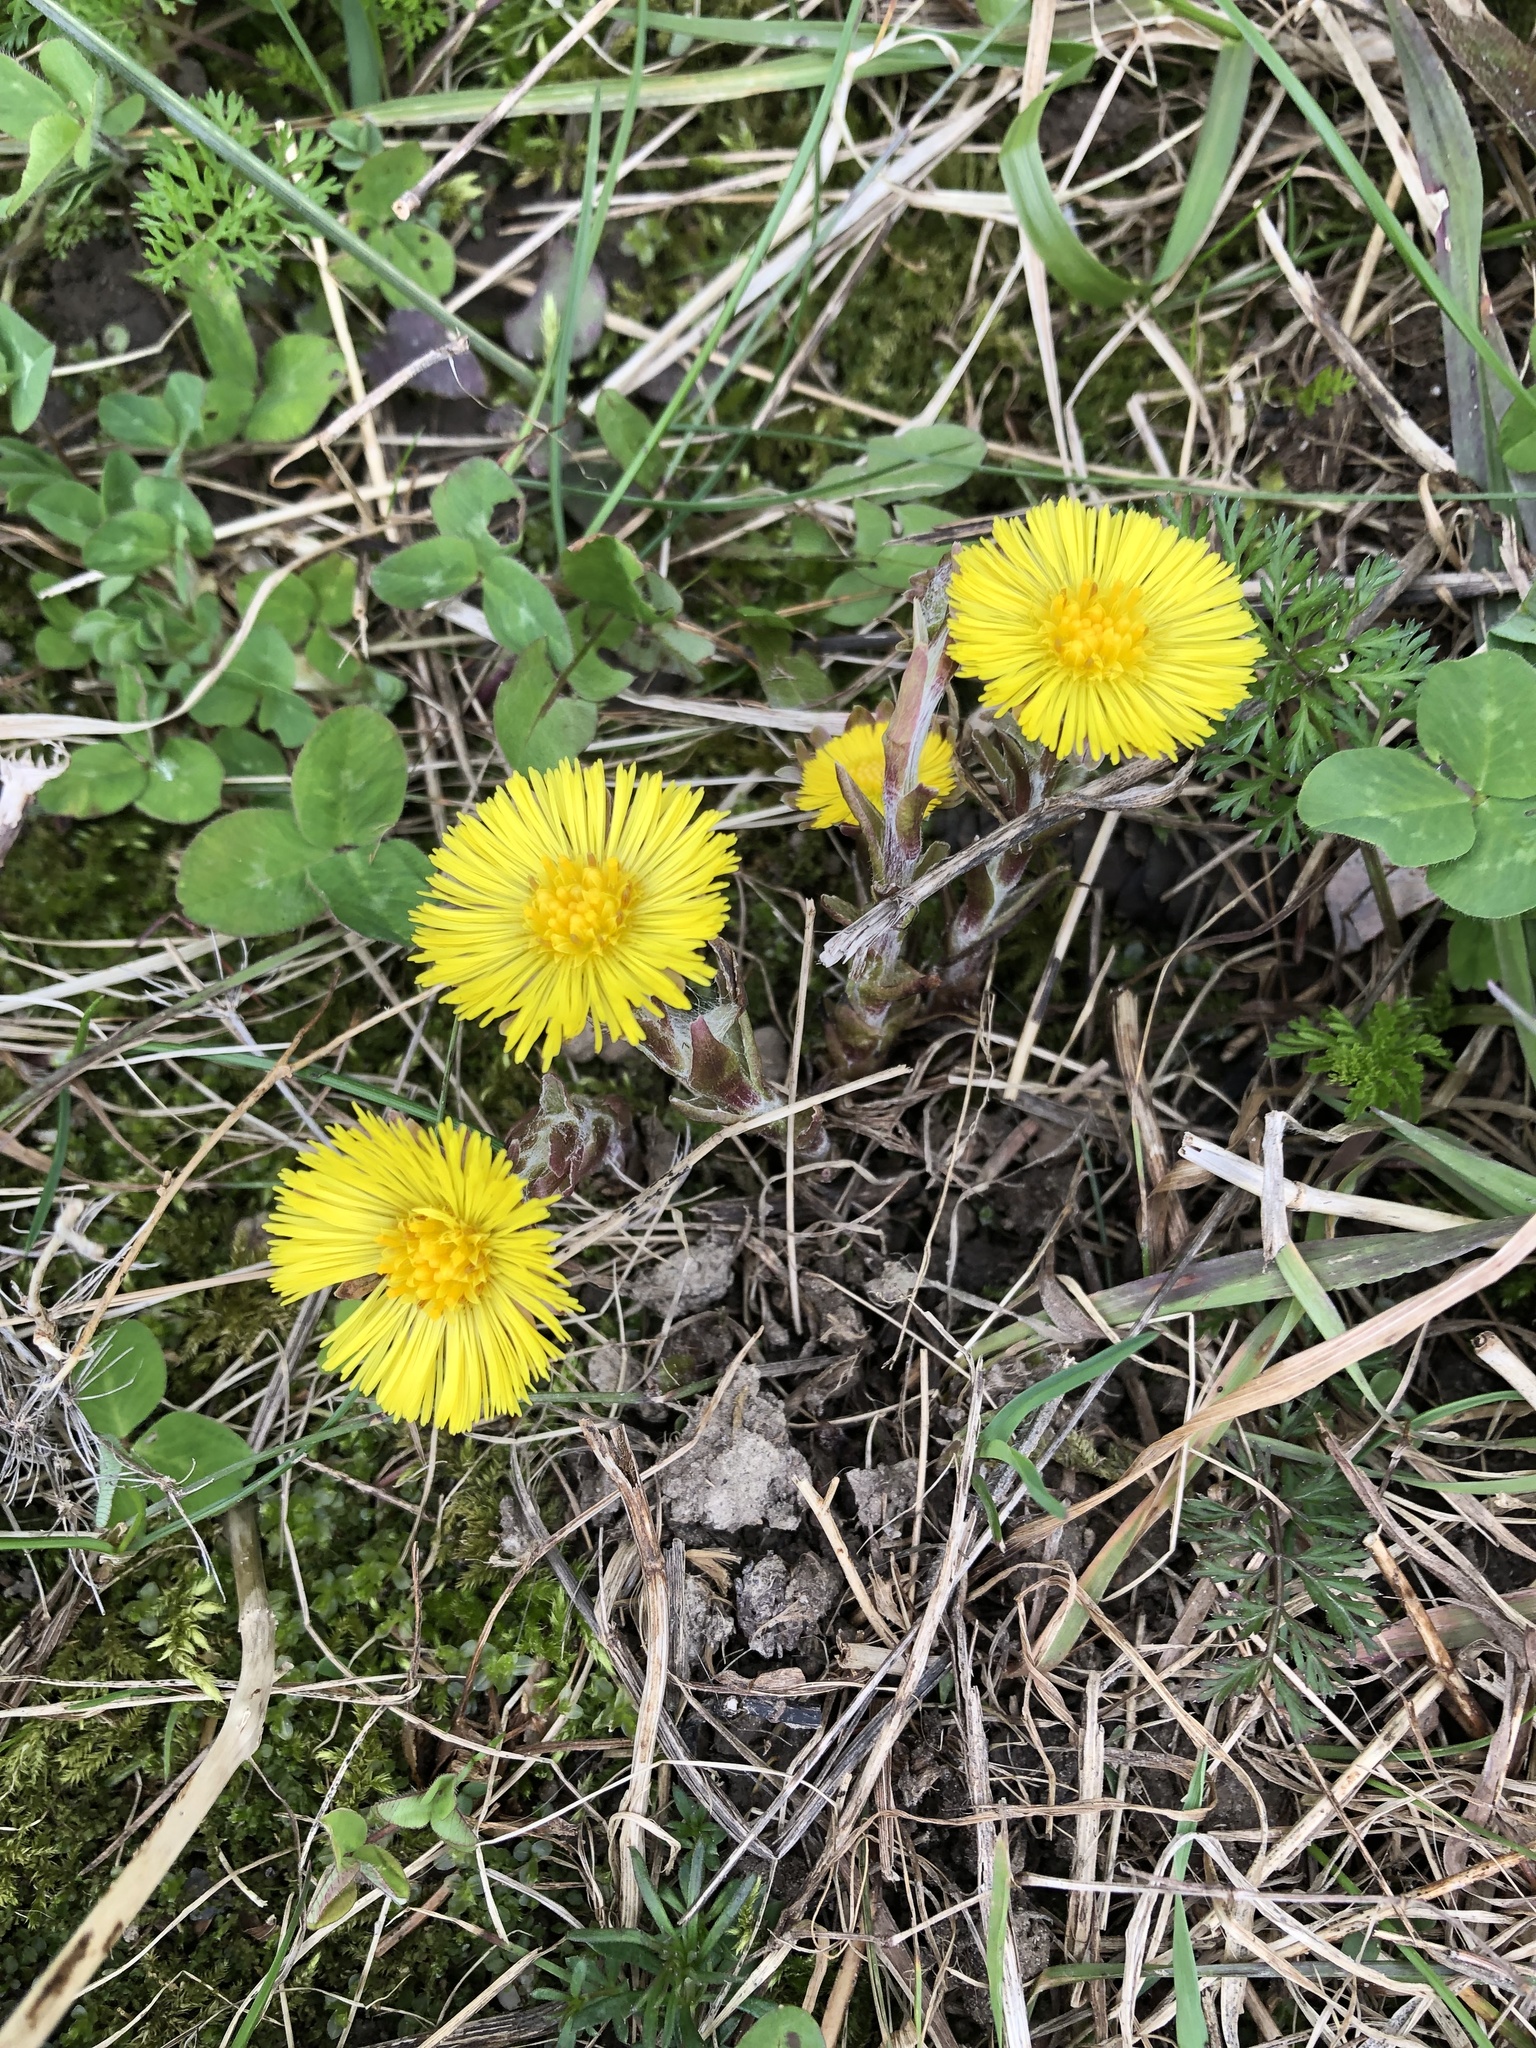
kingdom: Plantae
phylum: Tracheophyta
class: Magnoliopsida
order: Asterales
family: Asteraceae
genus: Tussilago
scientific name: Tussilago farfara
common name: Coltsfoot
